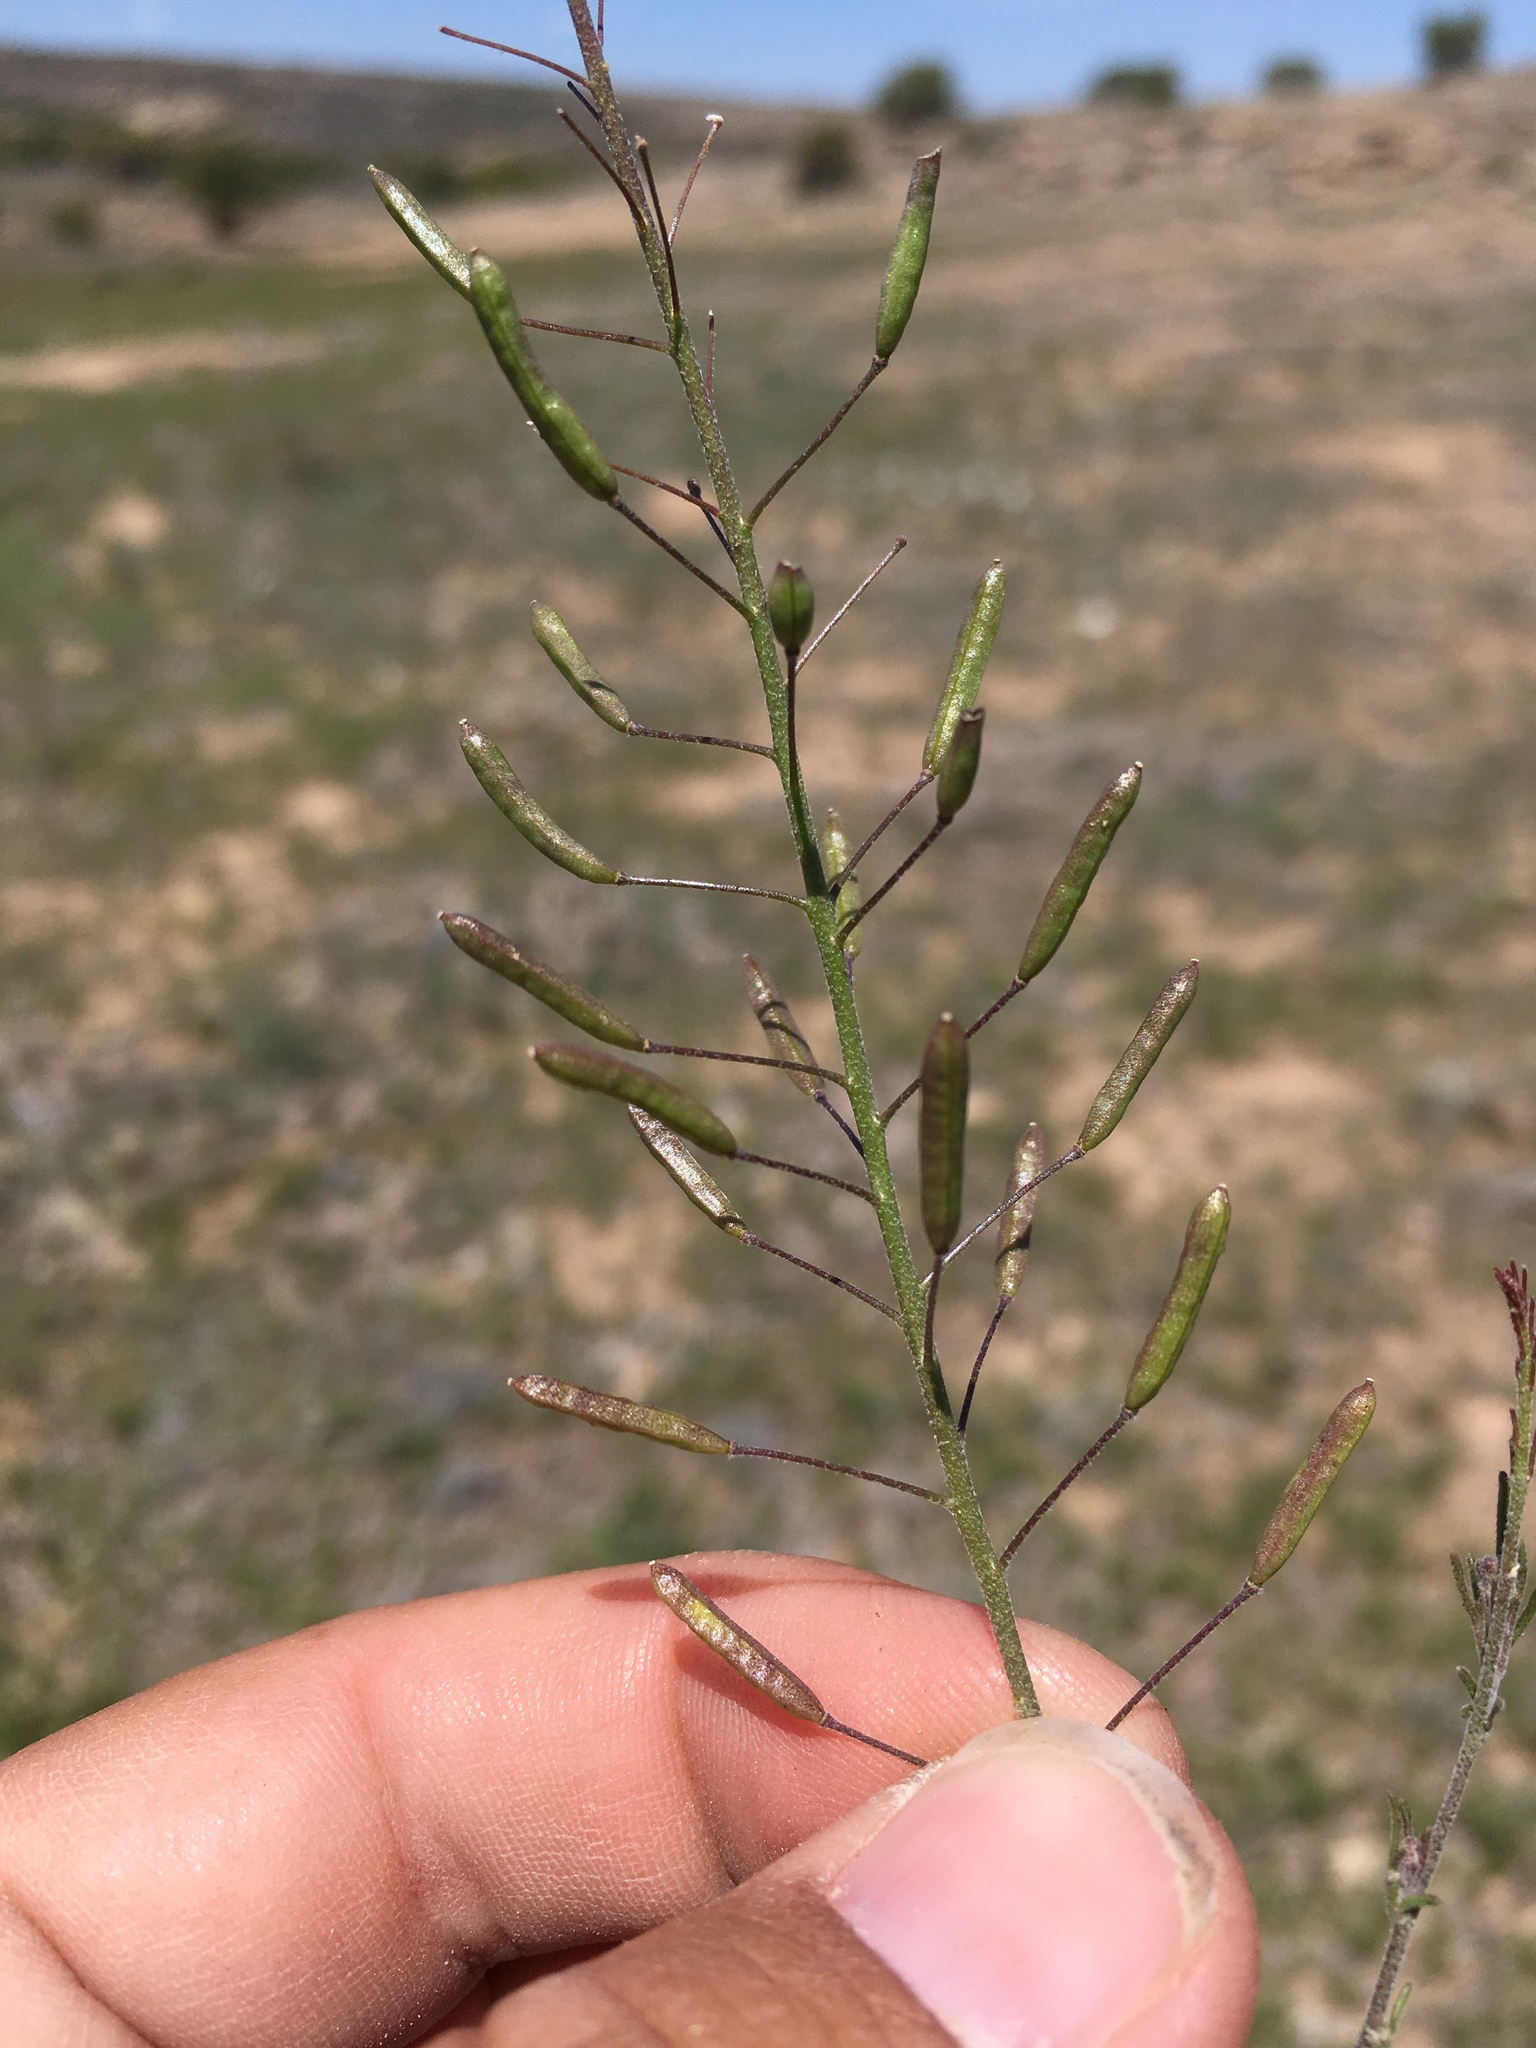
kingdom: Plantae
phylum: Tracheophyta
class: Magnoliopsida
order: Brassicales
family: Brassicaceae
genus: Descurainia
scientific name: Descurainia pinnata
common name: Western tansy mustard
